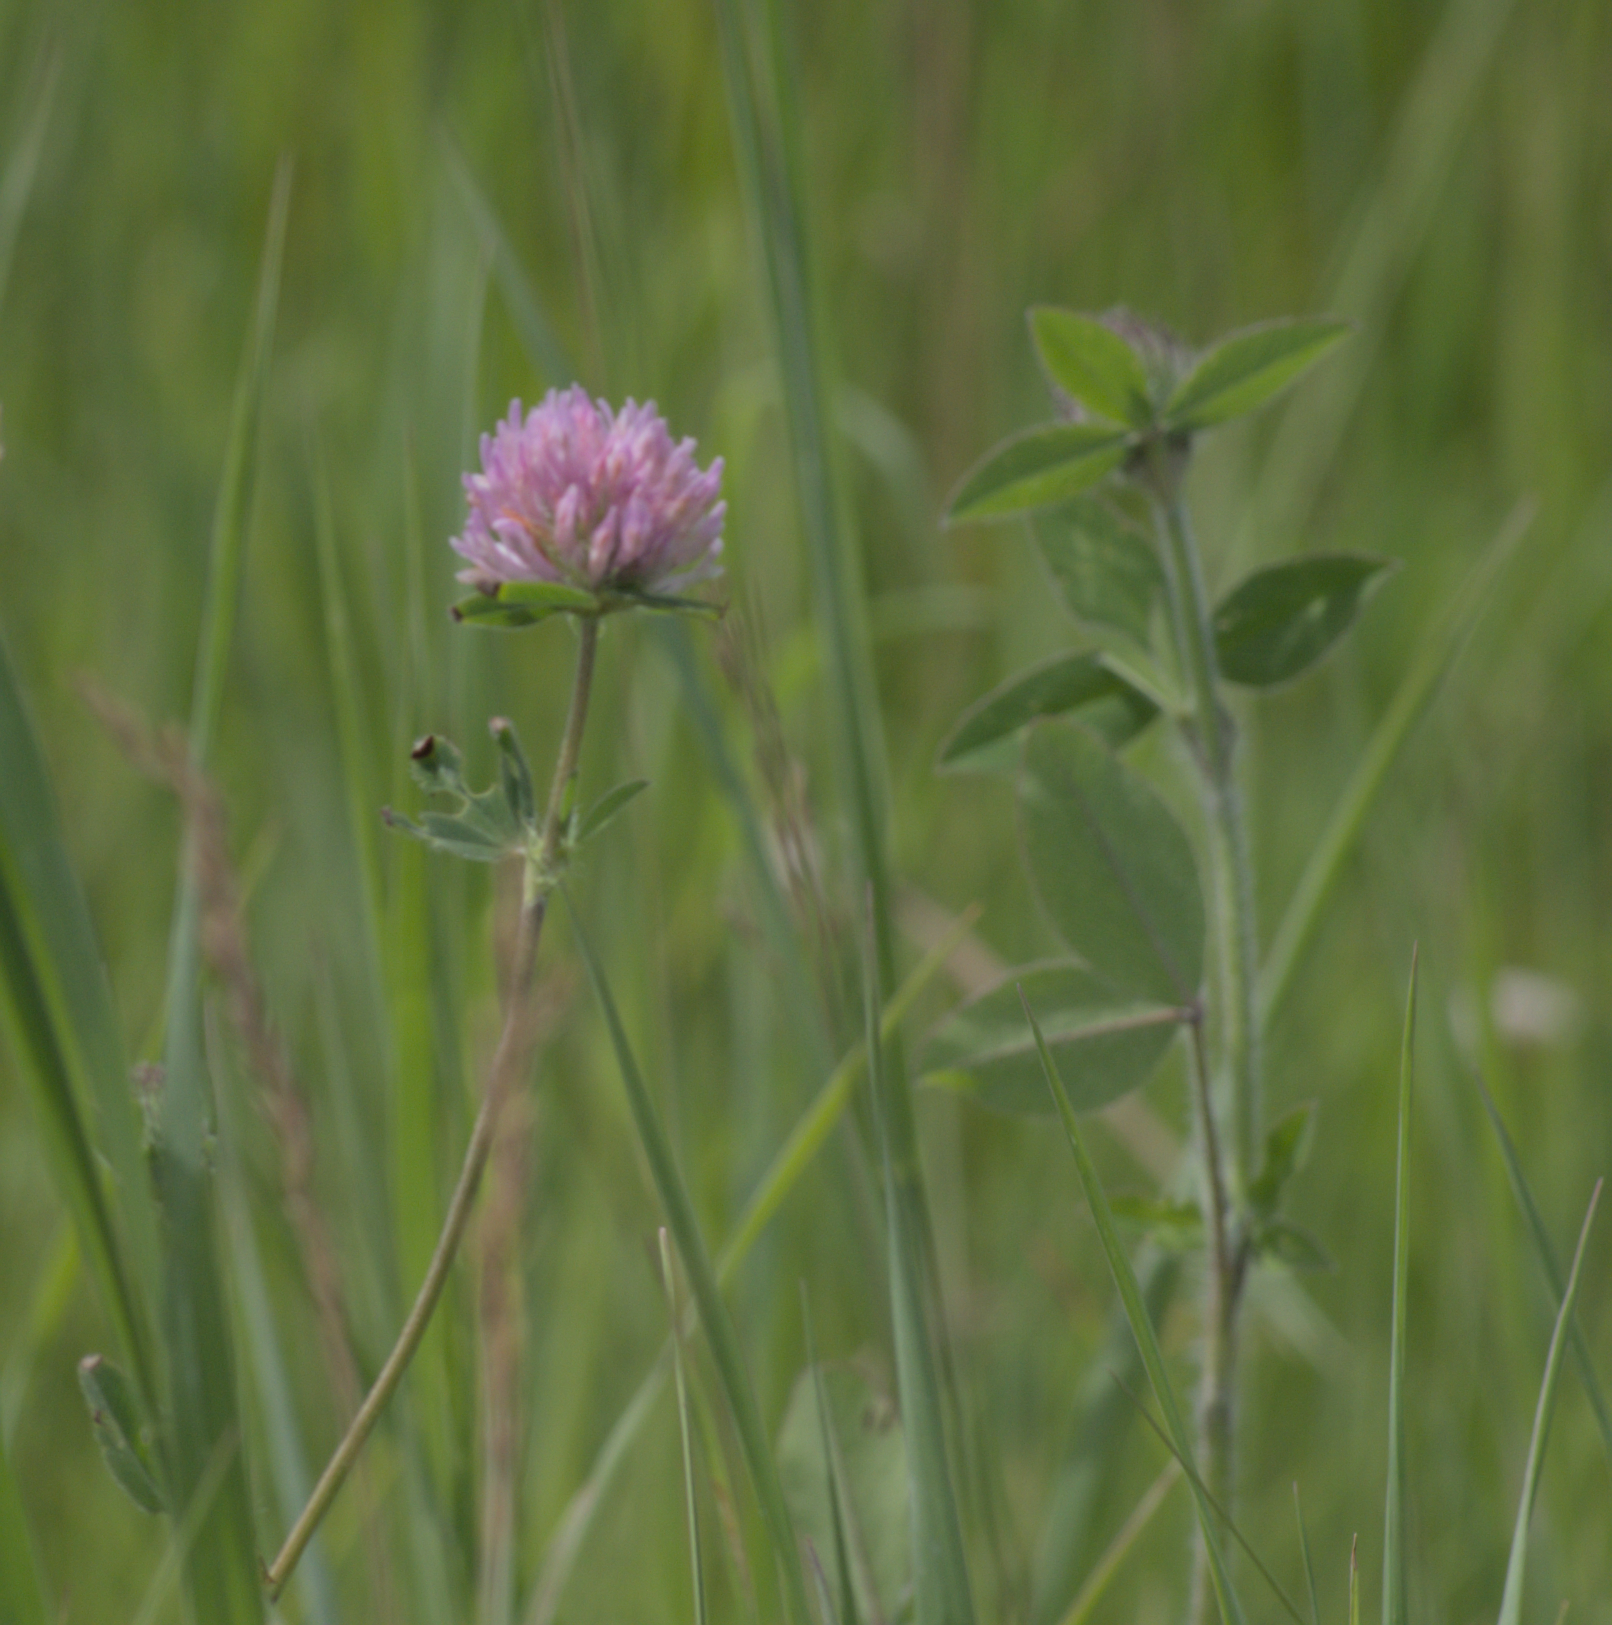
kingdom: Plantae
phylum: Tracheophyta
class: Magnoliopsida
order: Fabales
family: Fabaceae
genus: Trifolium
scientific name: Trifolium pratense
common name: Red clover
